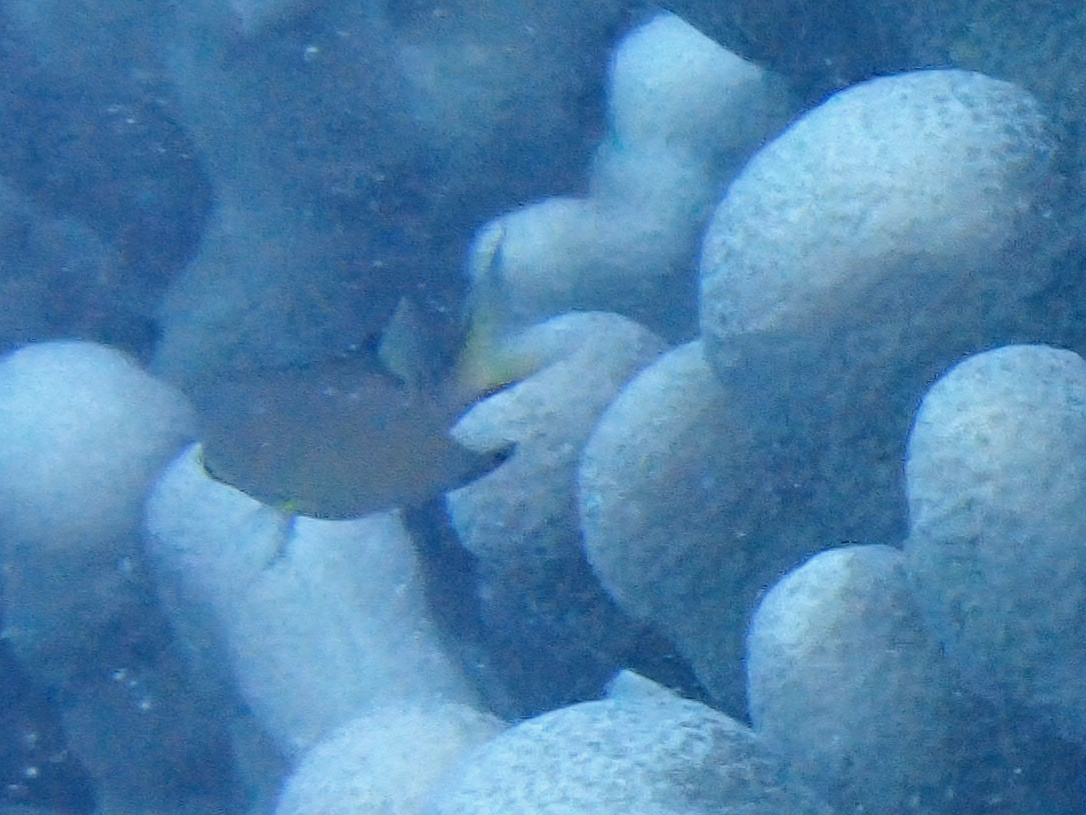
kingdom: Animalia
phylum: Chordata
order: Perciformes
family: Pomacentridae
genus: Chromis
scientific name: Chromis atripes
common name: Dark-fin chromis
